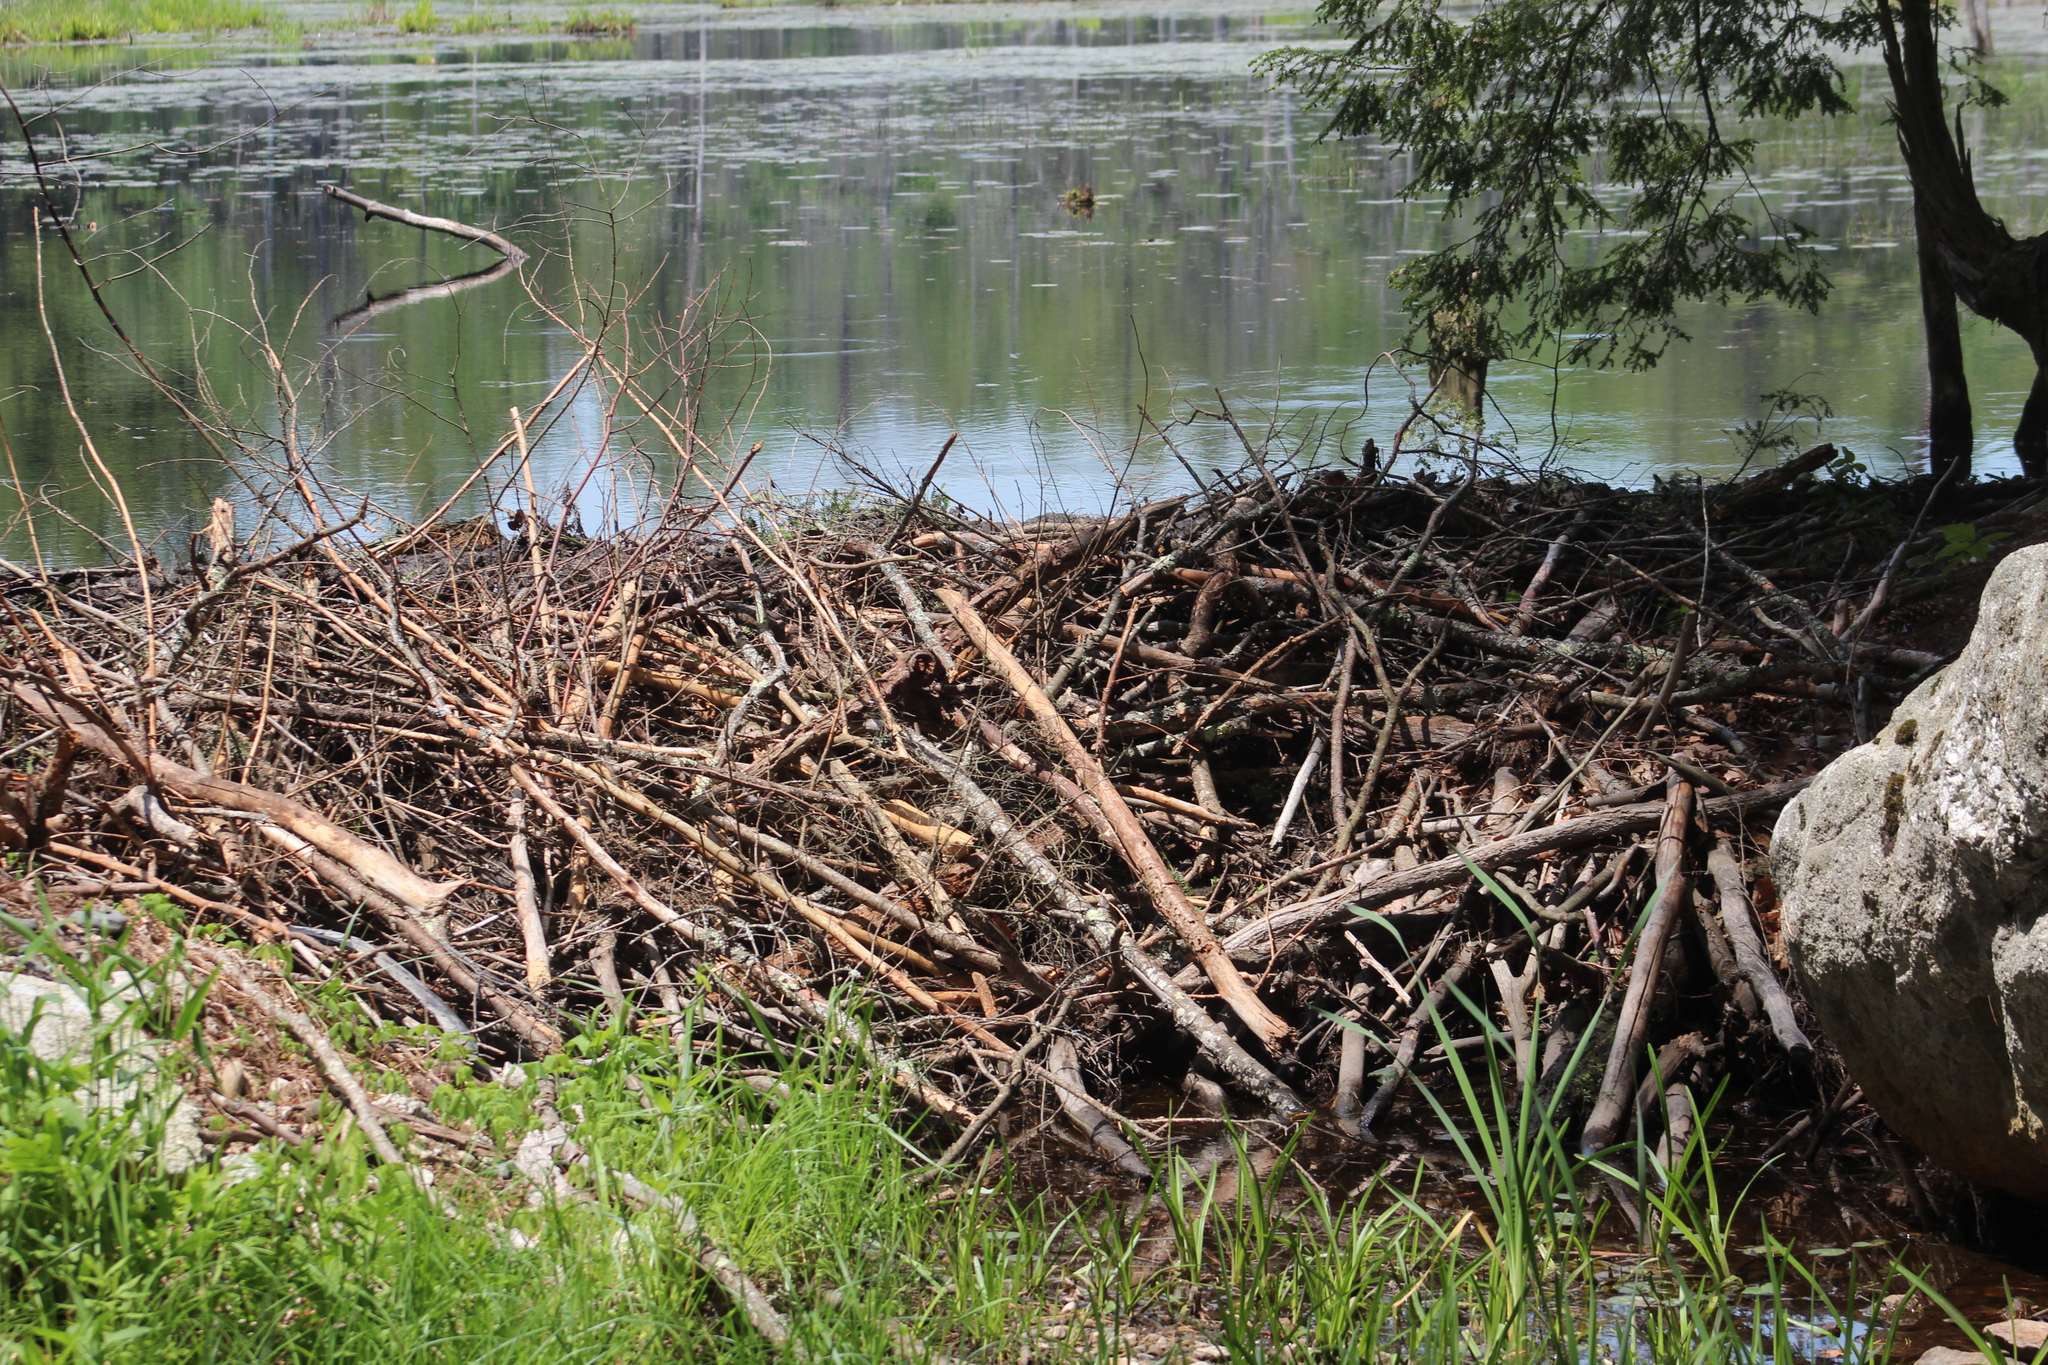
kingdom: Animalia
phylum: Chordata
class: Mammalia
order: Rodentia
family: Castoridae
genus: Castor
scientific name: Castor canadensis
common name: American beaver
